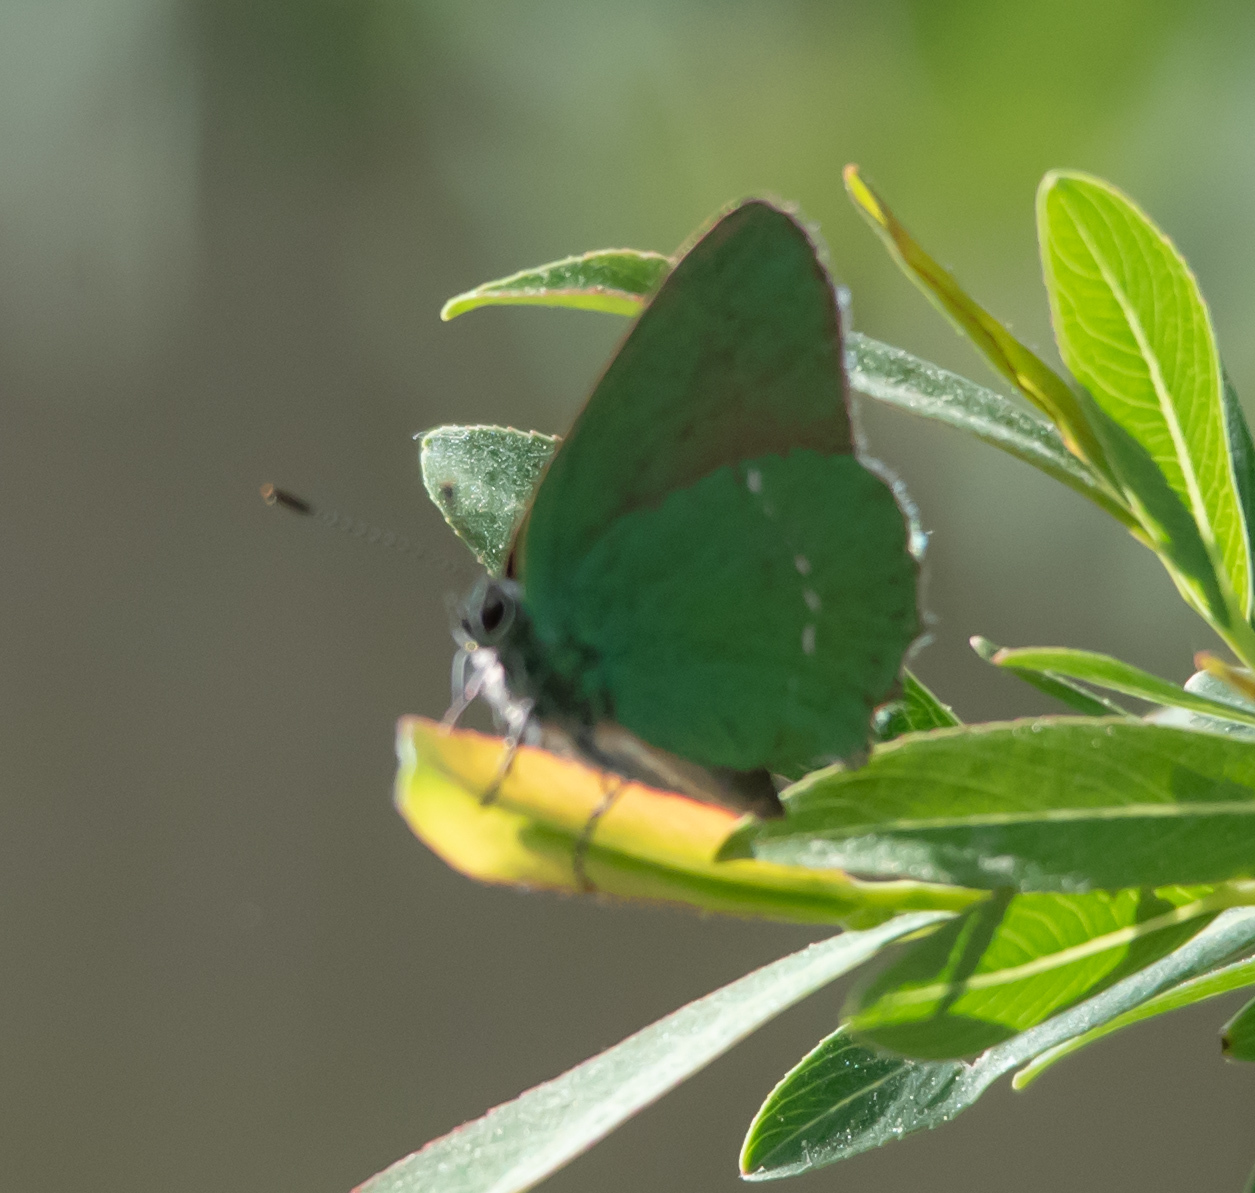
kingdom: Animalia
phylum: Arthropoda
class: Insecta
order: Lepidoptera
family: Lycaenidae
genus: Callophrys
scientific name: Callophrys rubi
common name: Green hairstreak
